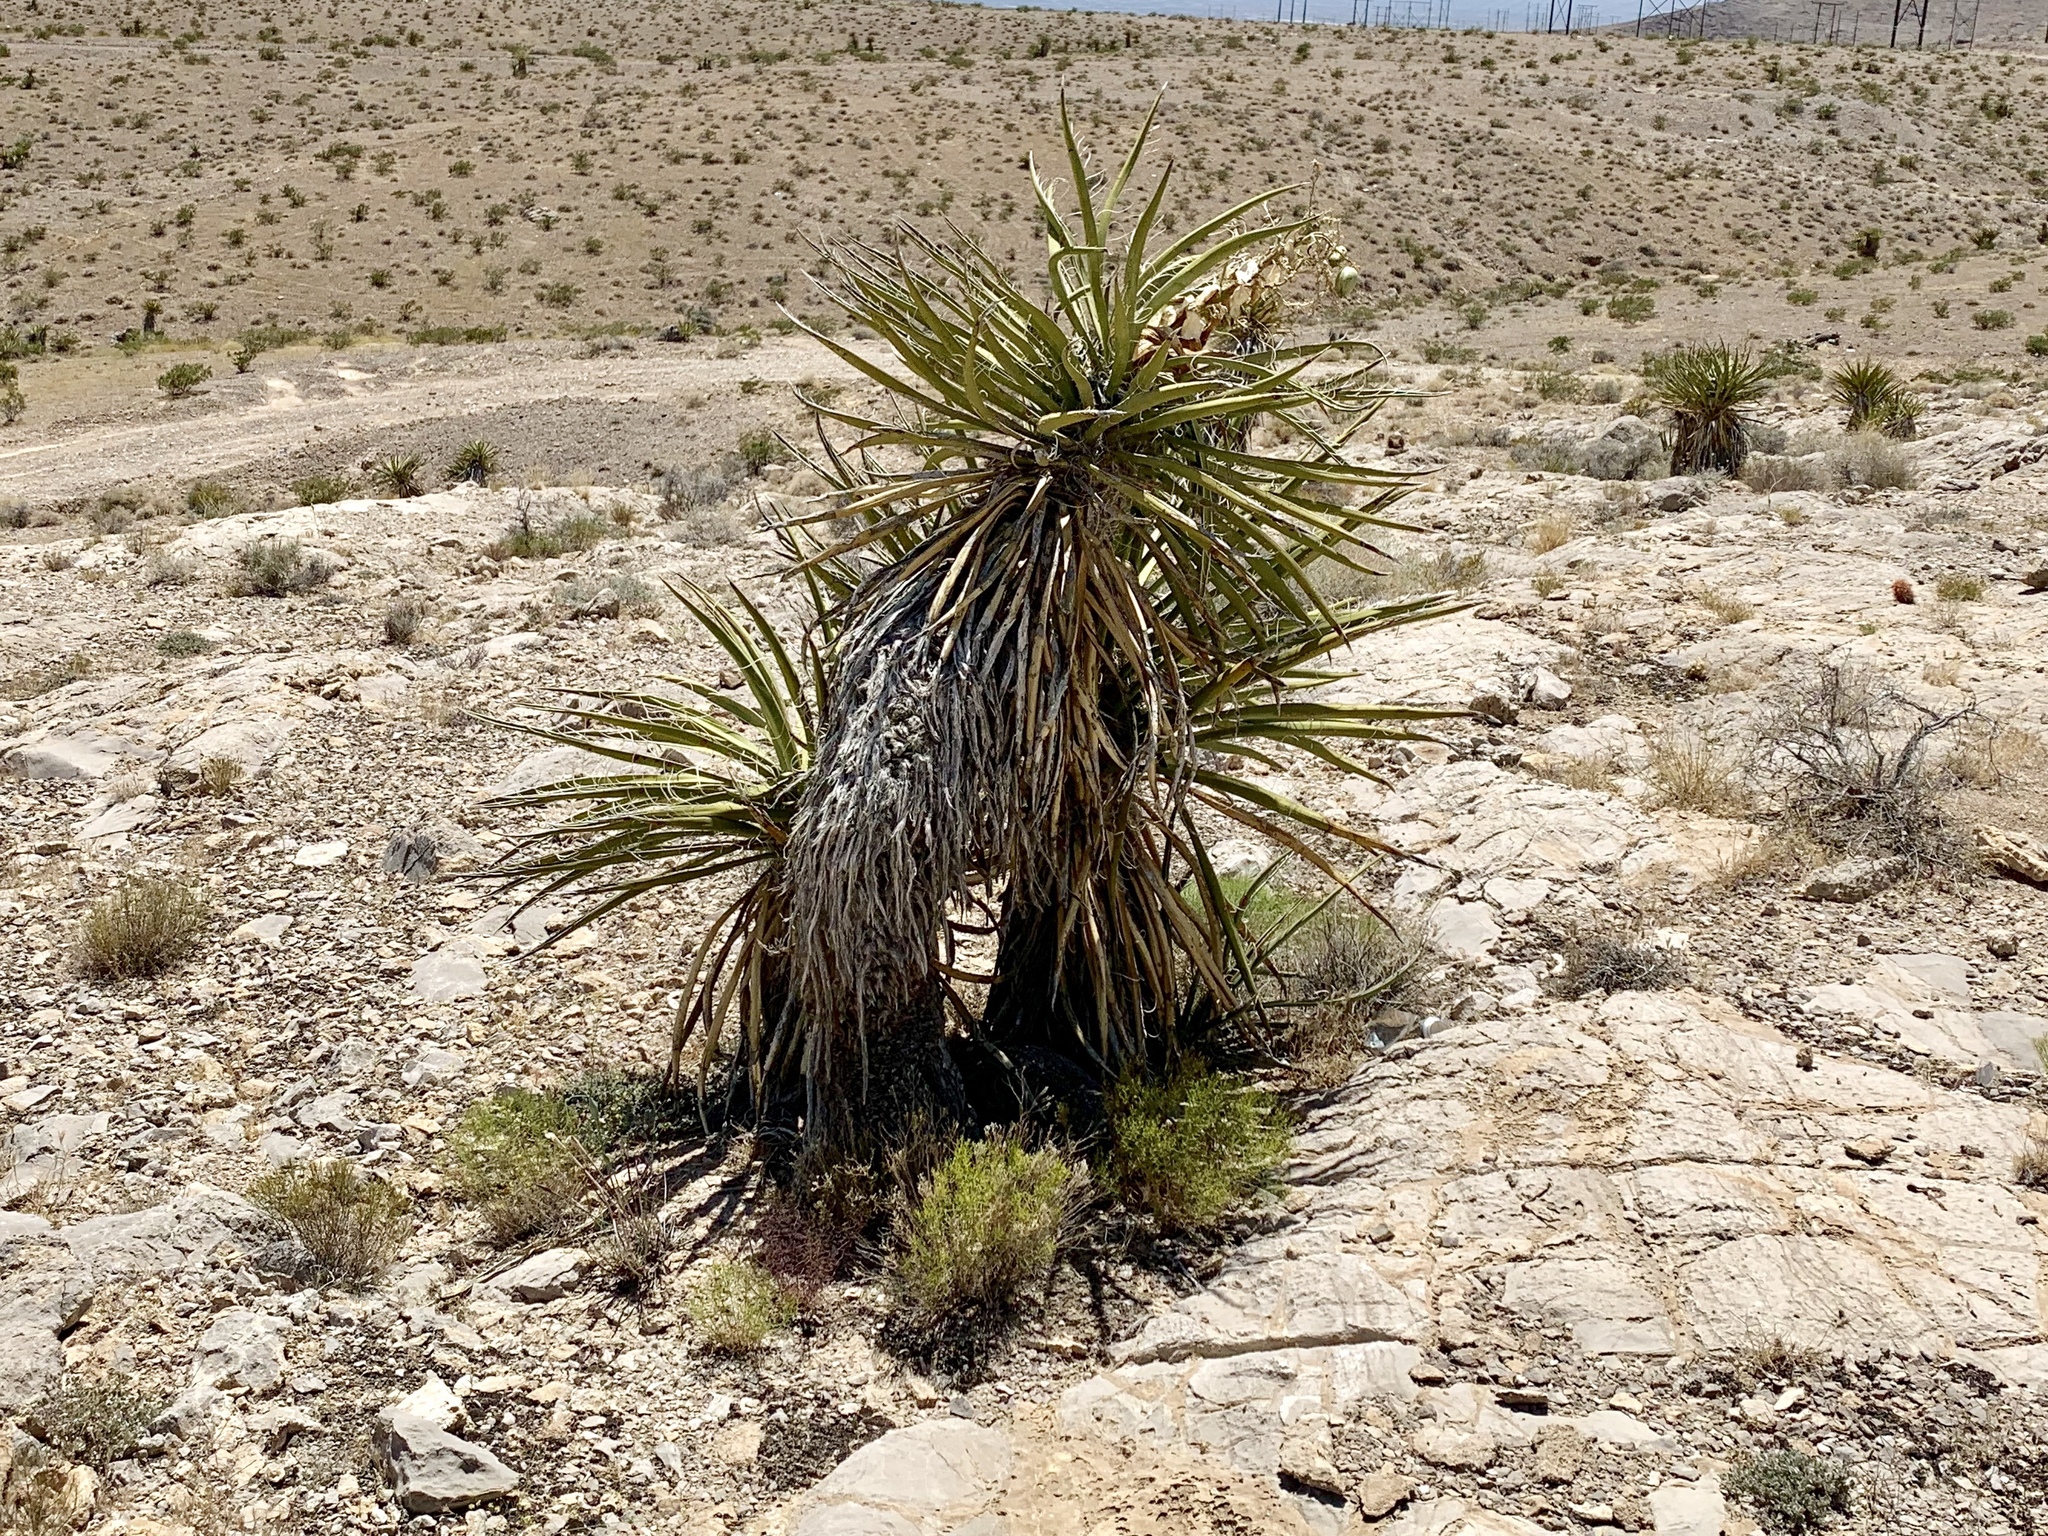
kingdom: Plantae
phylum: Tracheophyta
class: Liliopsida
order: Asparagales
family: Asparagaceae
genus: Yucca
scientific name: Yucca schidigera
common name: Mojave yucca
